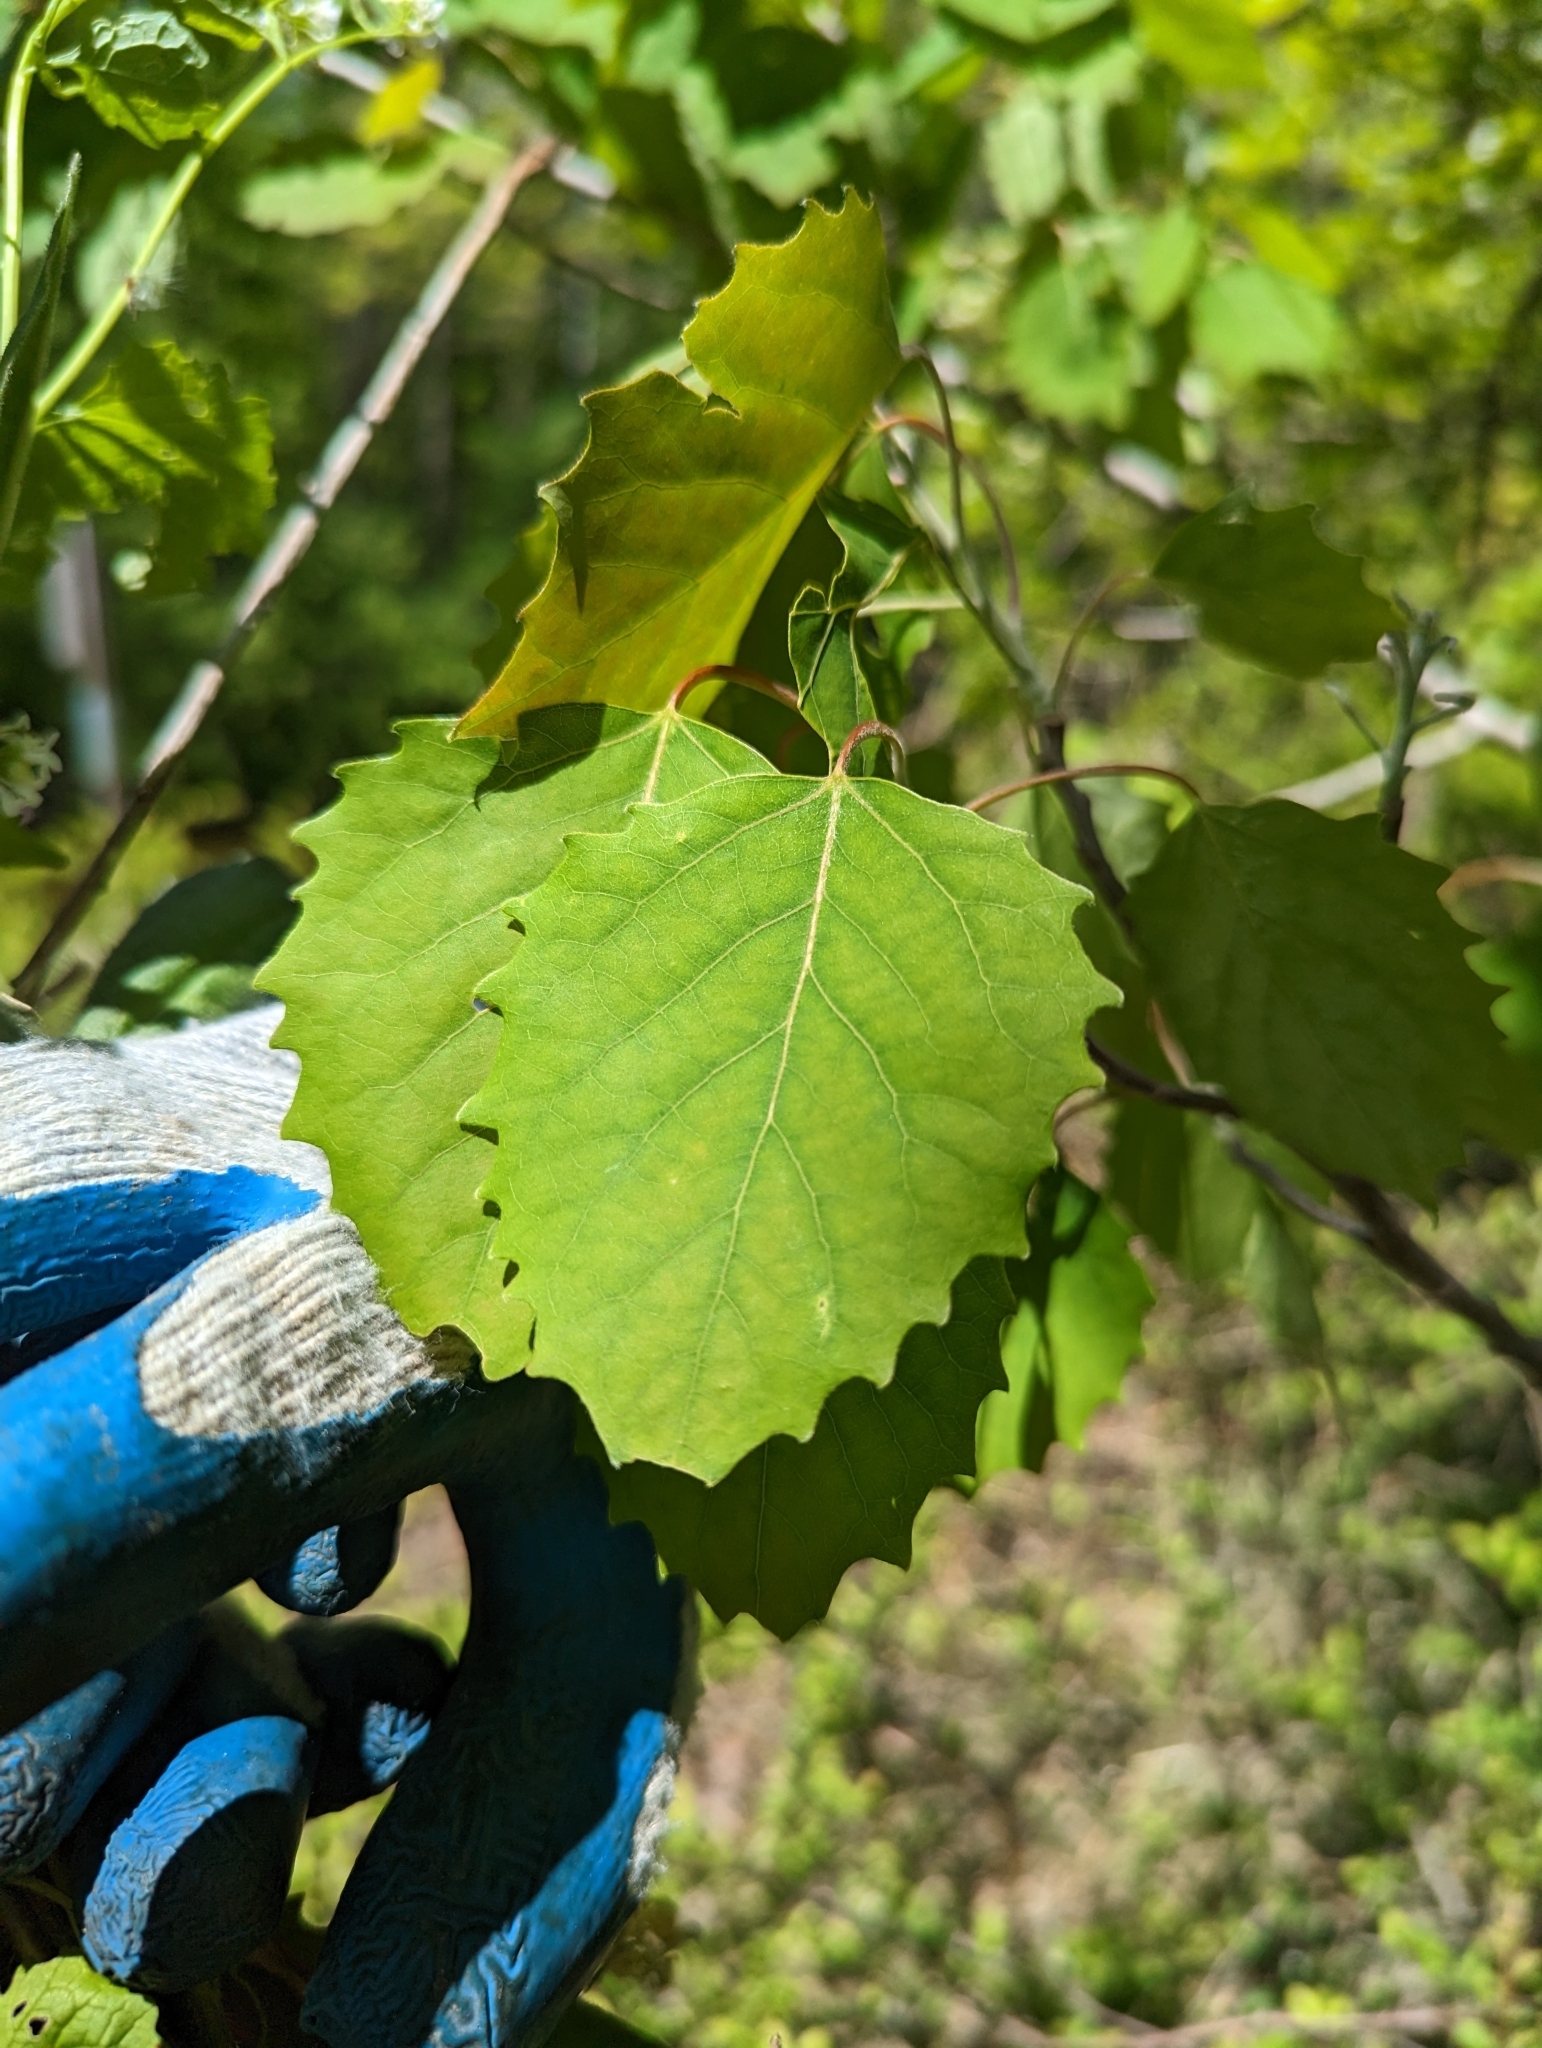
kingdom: Plantae
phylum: Tracheophyta
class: Magnoliopsida
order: Malpighiales
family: Salicaceae
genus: Populus
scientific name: Populus grandidentata
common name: Bigtooth aspen
